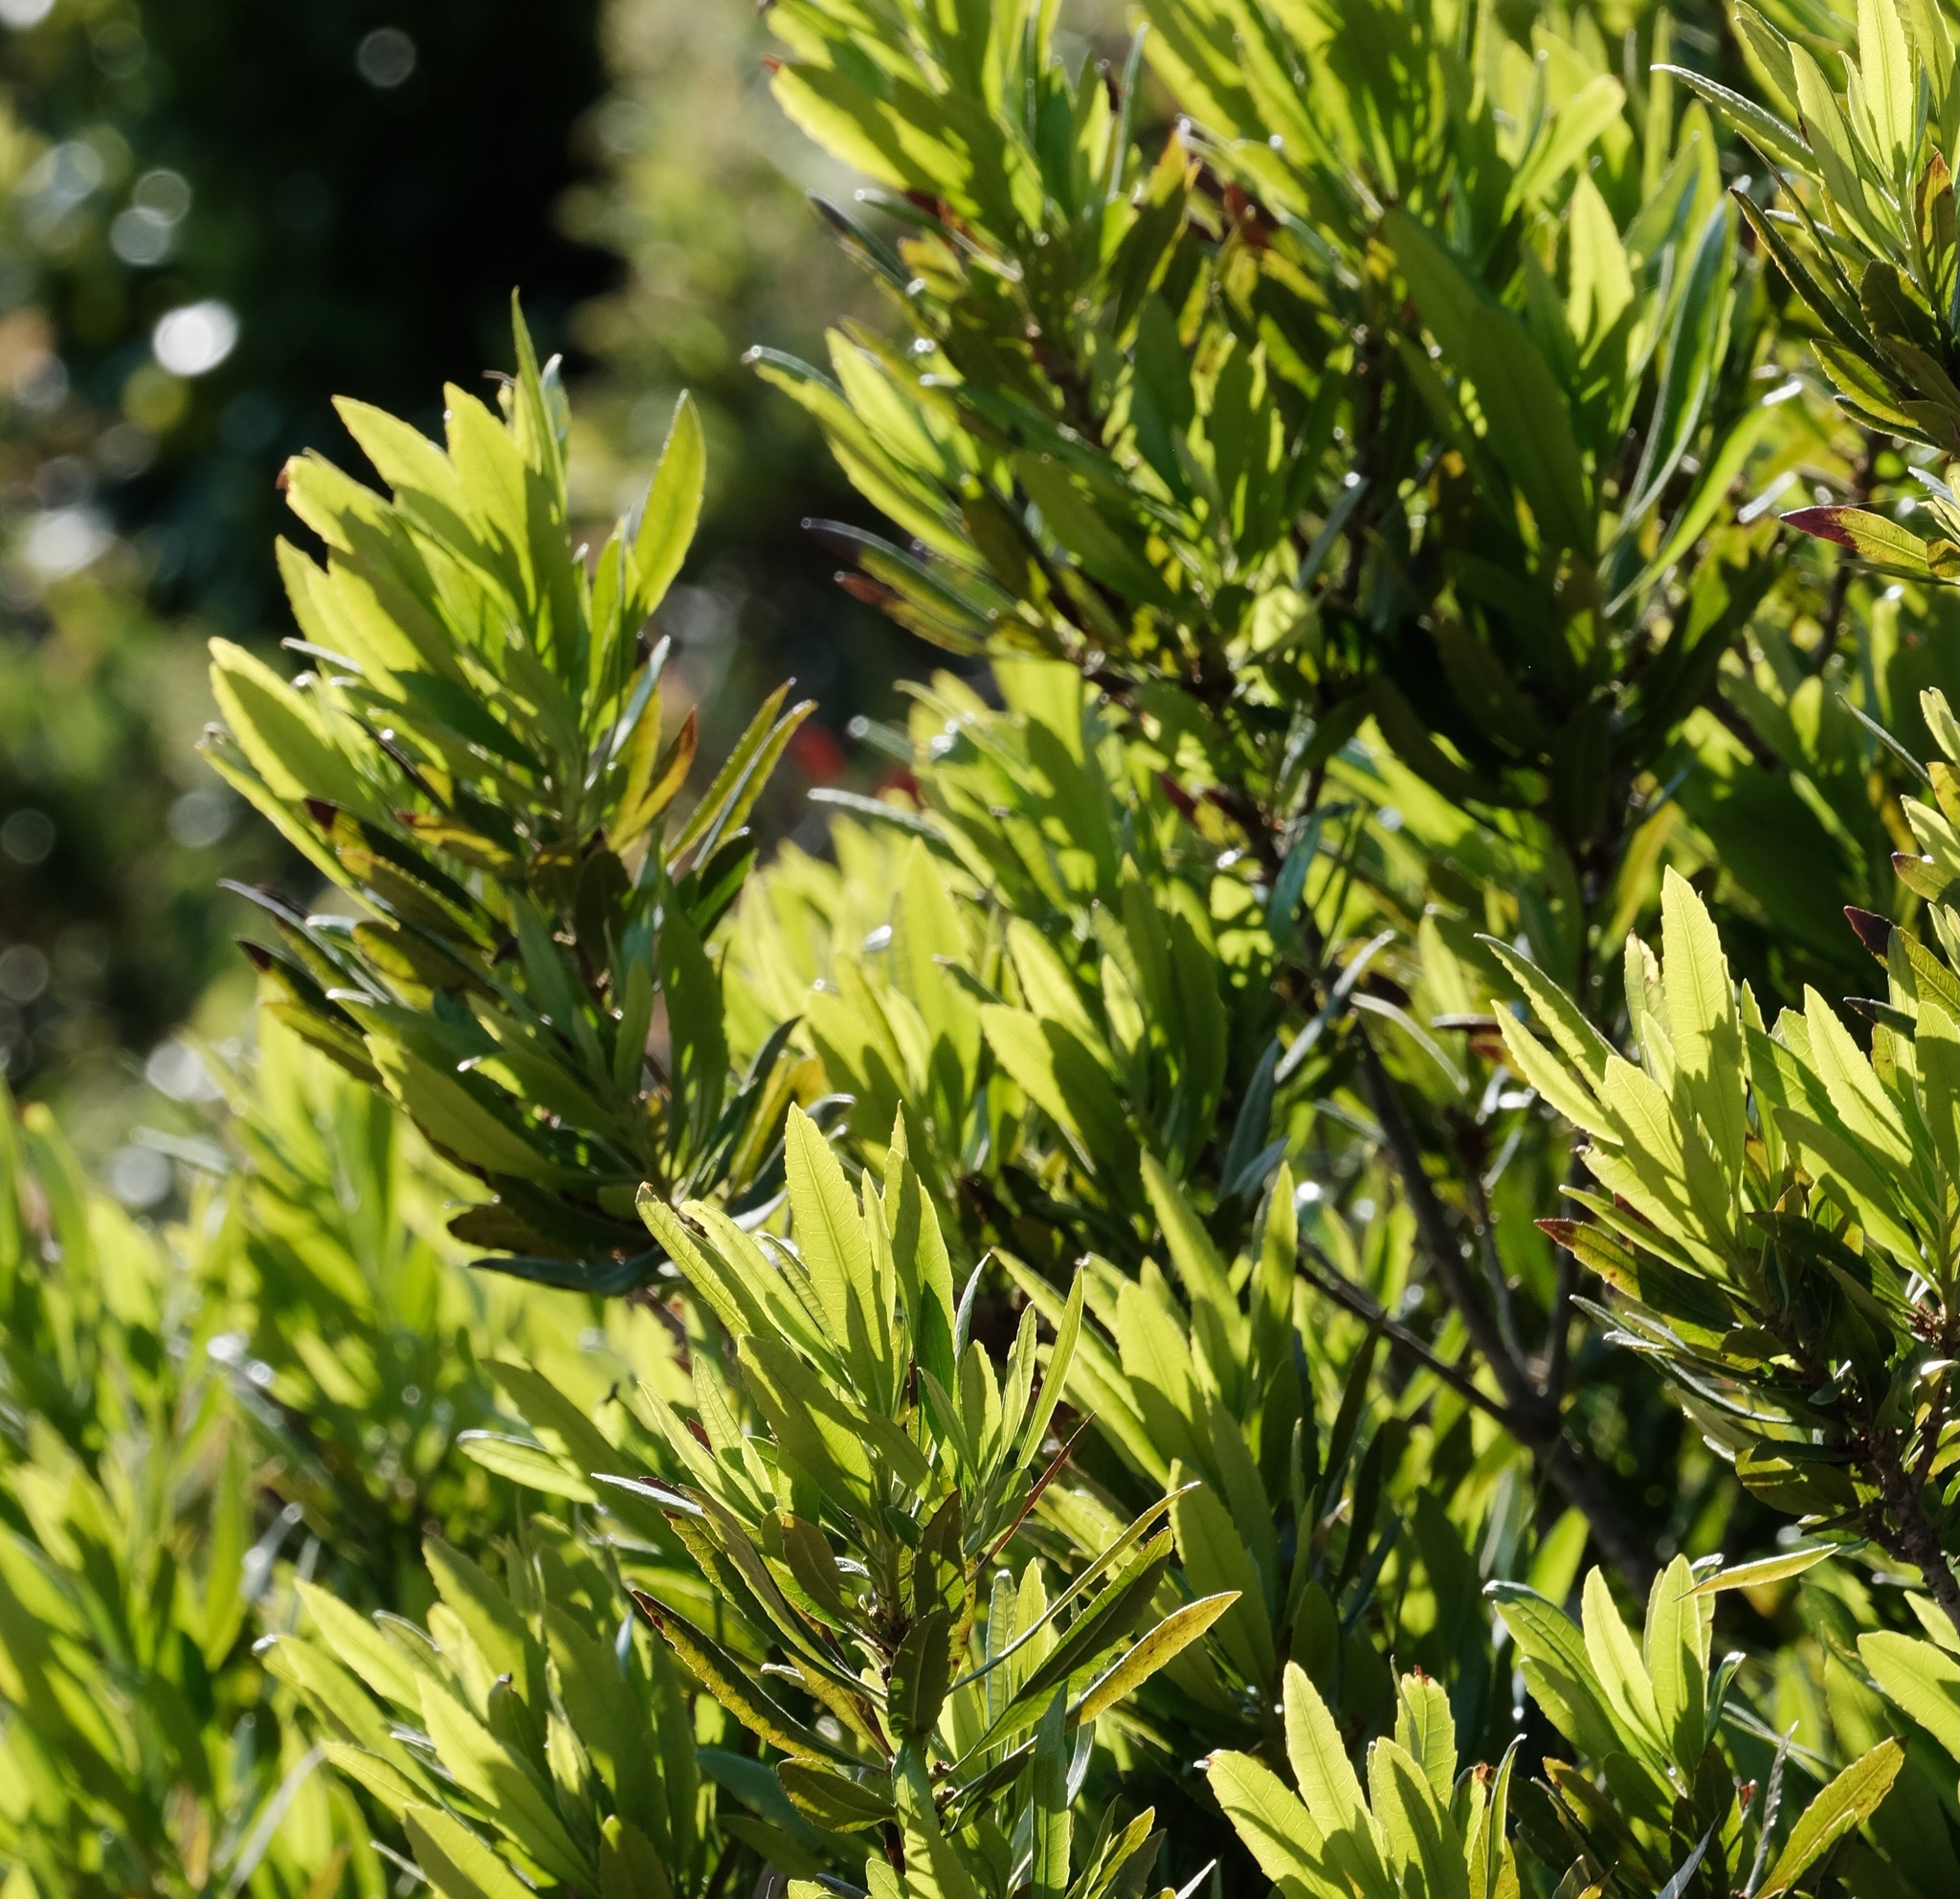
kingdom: Plantae
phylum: Tracheophyta
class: Magnoliopsida
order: Fagales
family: Myricaceae
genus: Morella
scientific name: Morella californica
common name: California wax-myrtle
